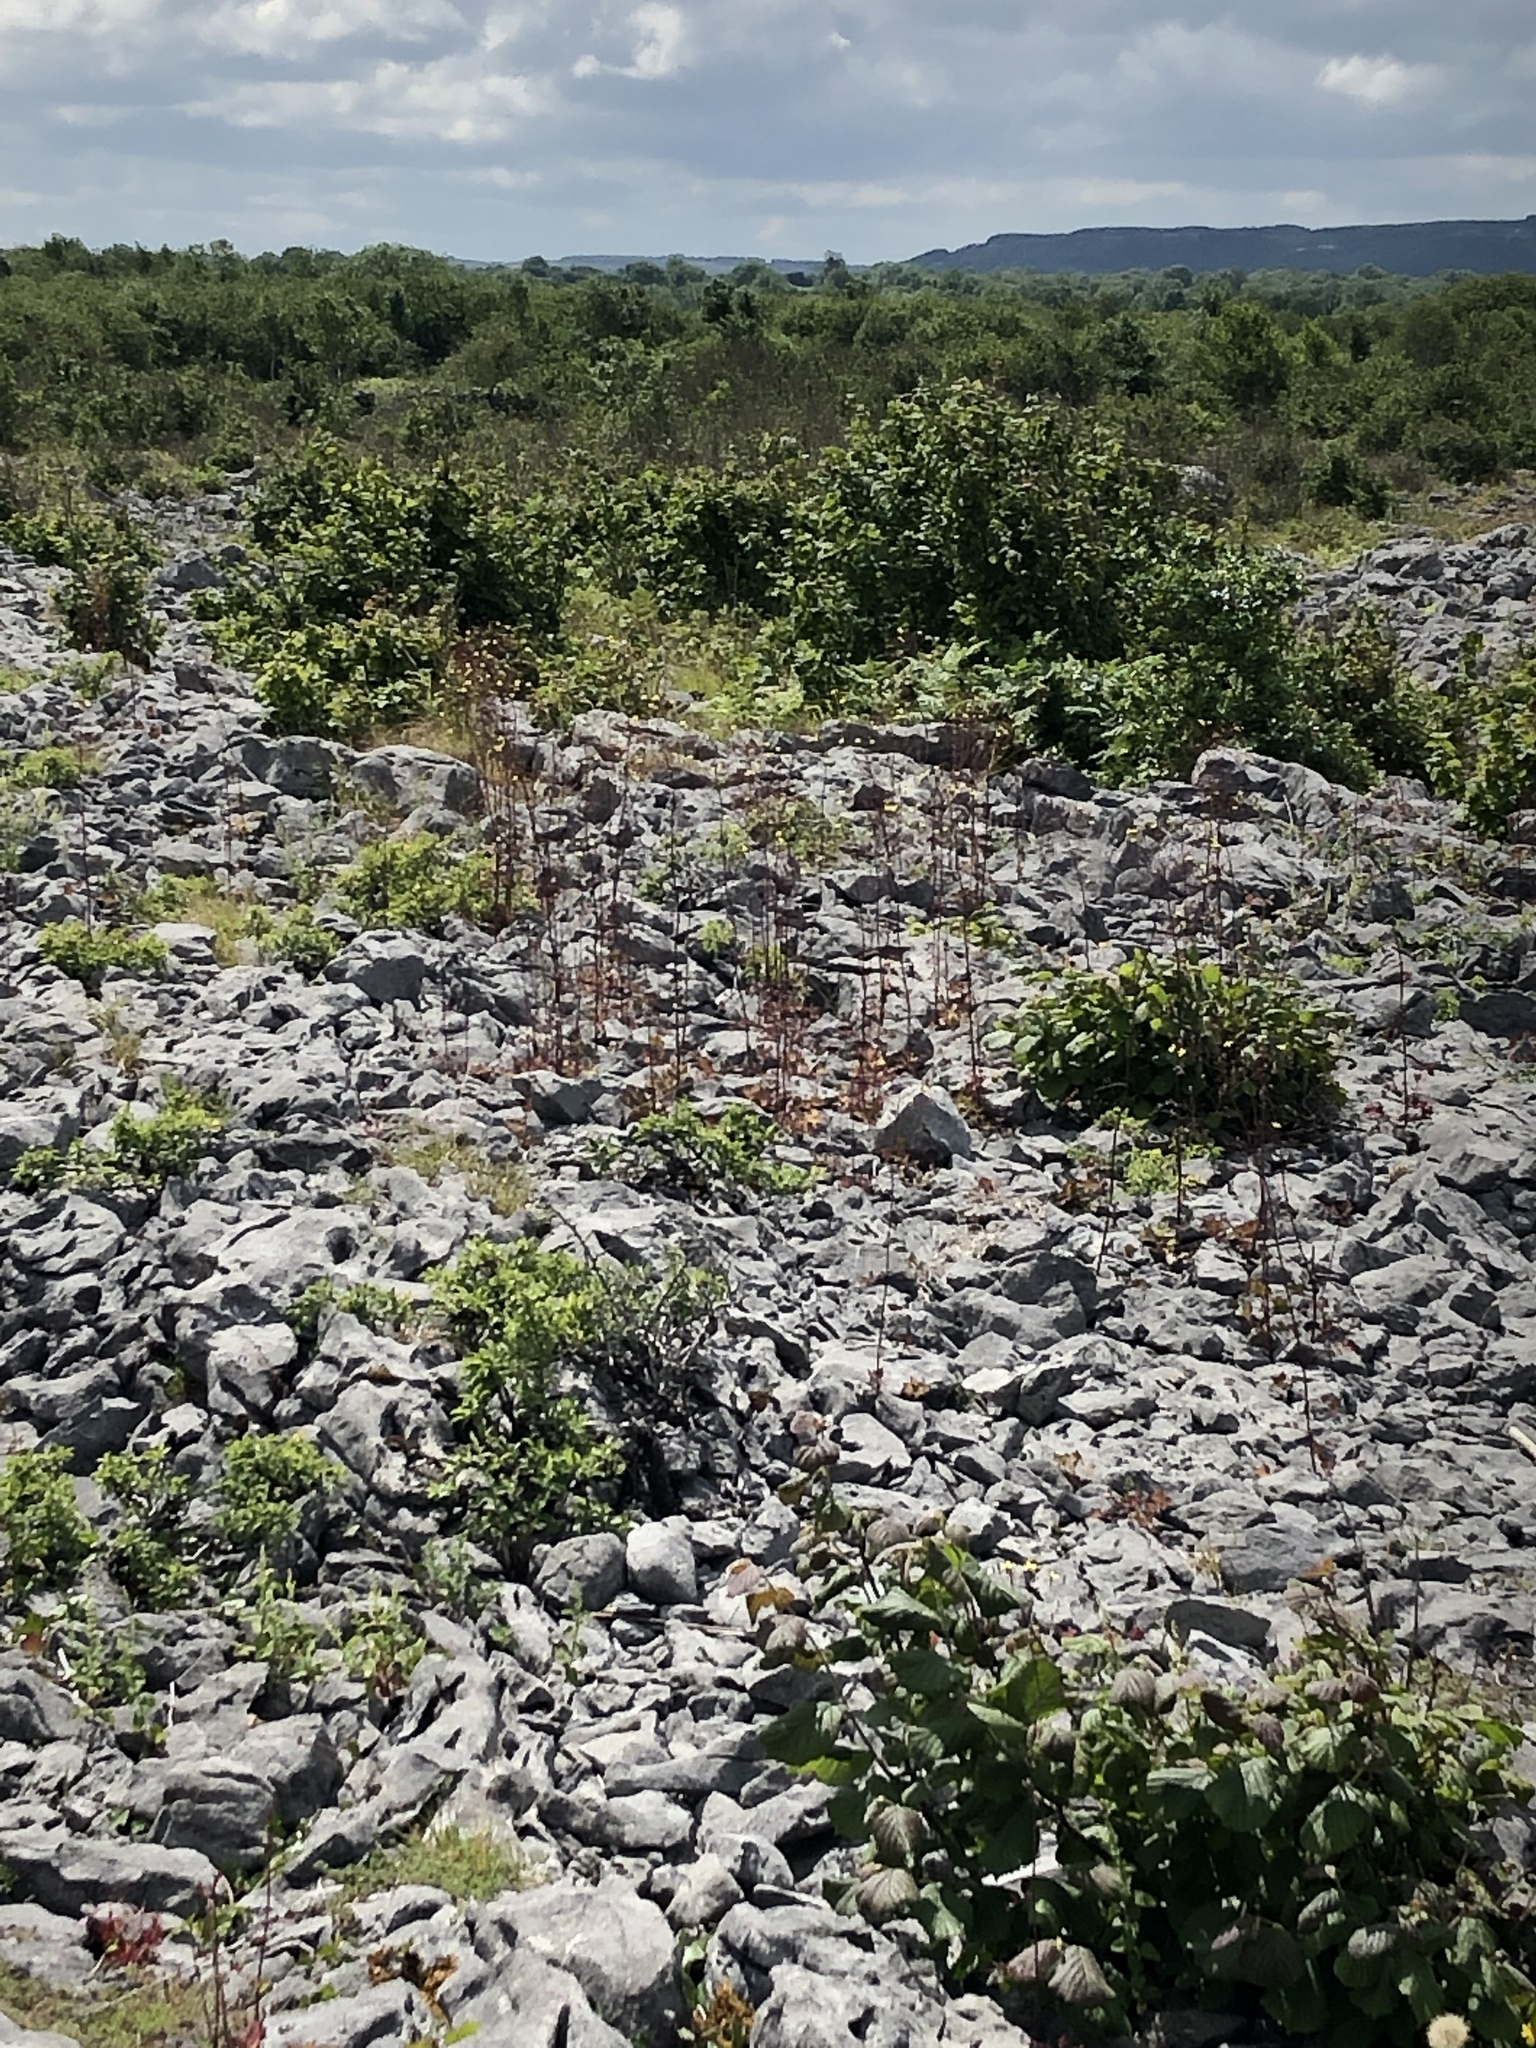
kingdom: Plantae
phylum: Tracheophyta
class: Magnoliopsida
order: Asterales
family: Asteraceae
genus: Mycelis
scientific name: Mycelis muralis
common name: Wall lettuce
